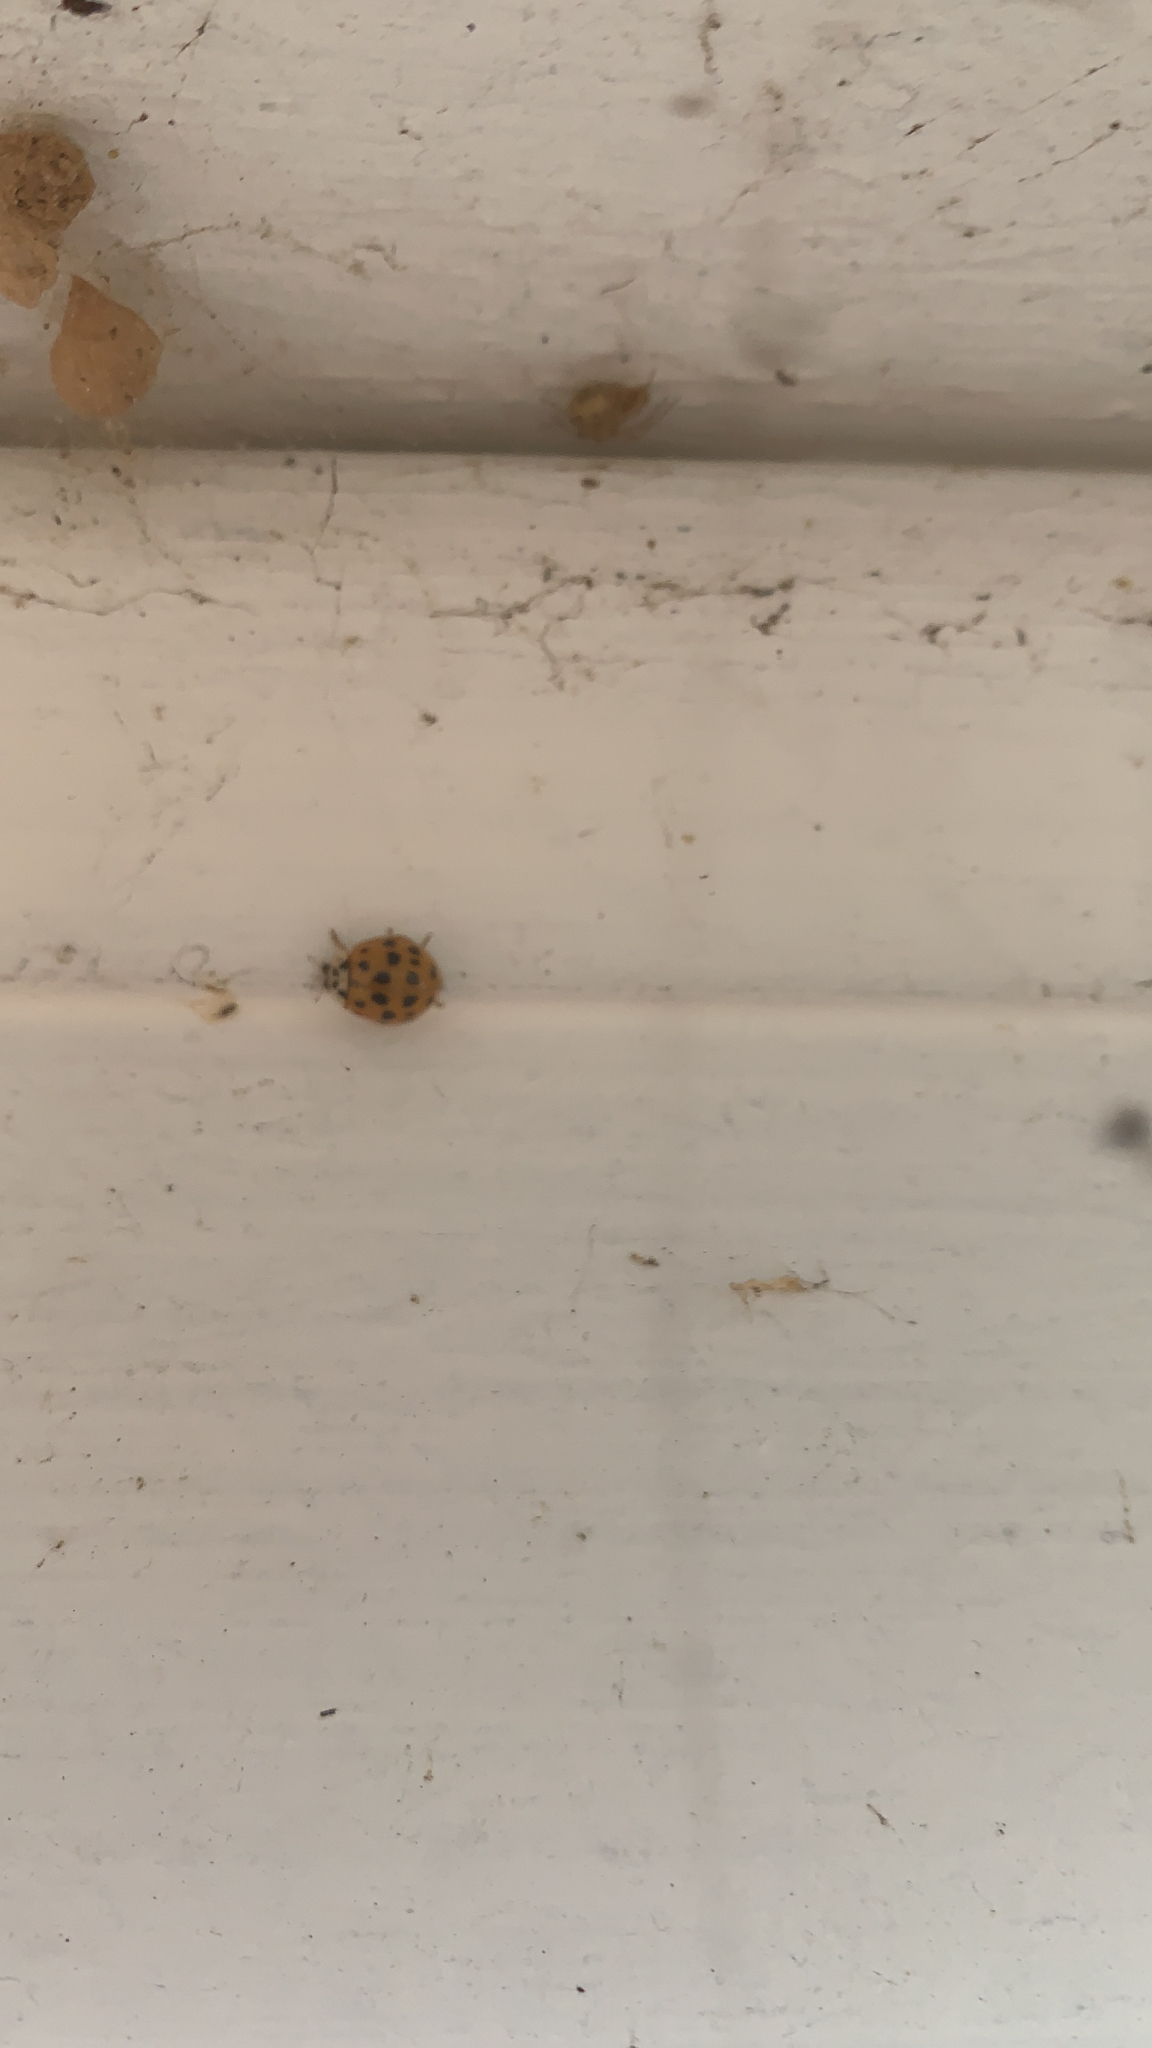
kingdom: Animalia
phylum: Arthropoda
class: Insecta
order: Coleoptera
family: Coccinellidae
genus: Harmonia
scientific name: Harmonia axyridis
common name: Harlequin ladybird
